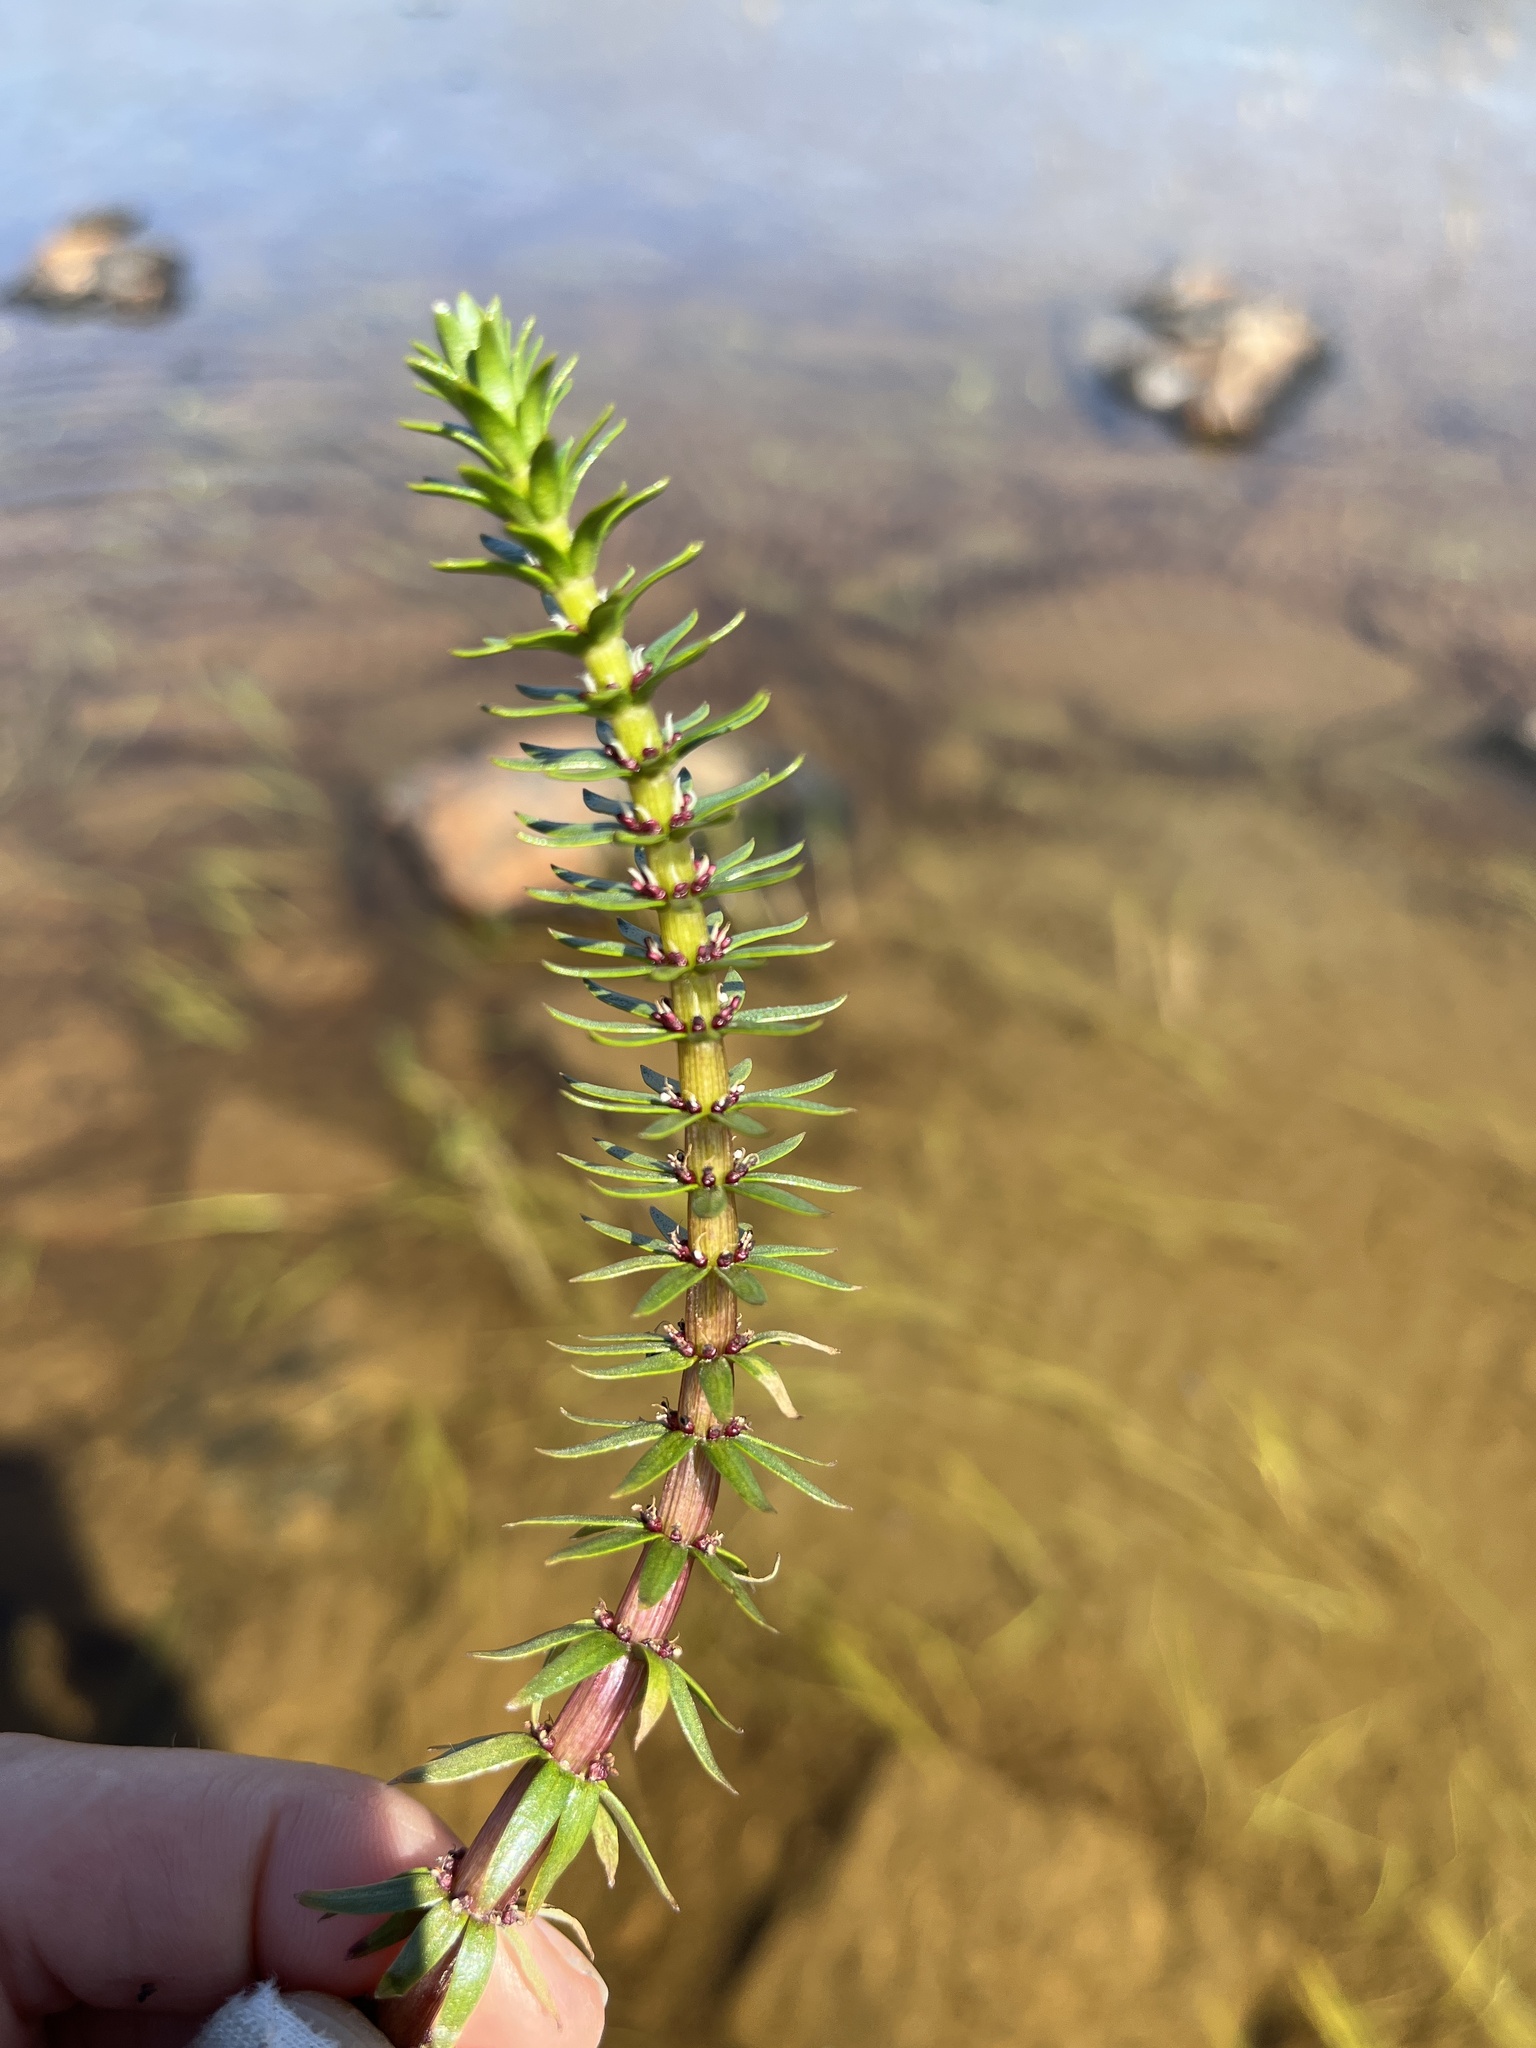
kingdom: Plantae
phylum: Tracheophyta
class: Magnoliopsida
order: Lamiales
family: Plantaginaceae
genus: Hippuris
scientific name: Hippuris lanceolata
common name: Lance-leaved mare's-tail
